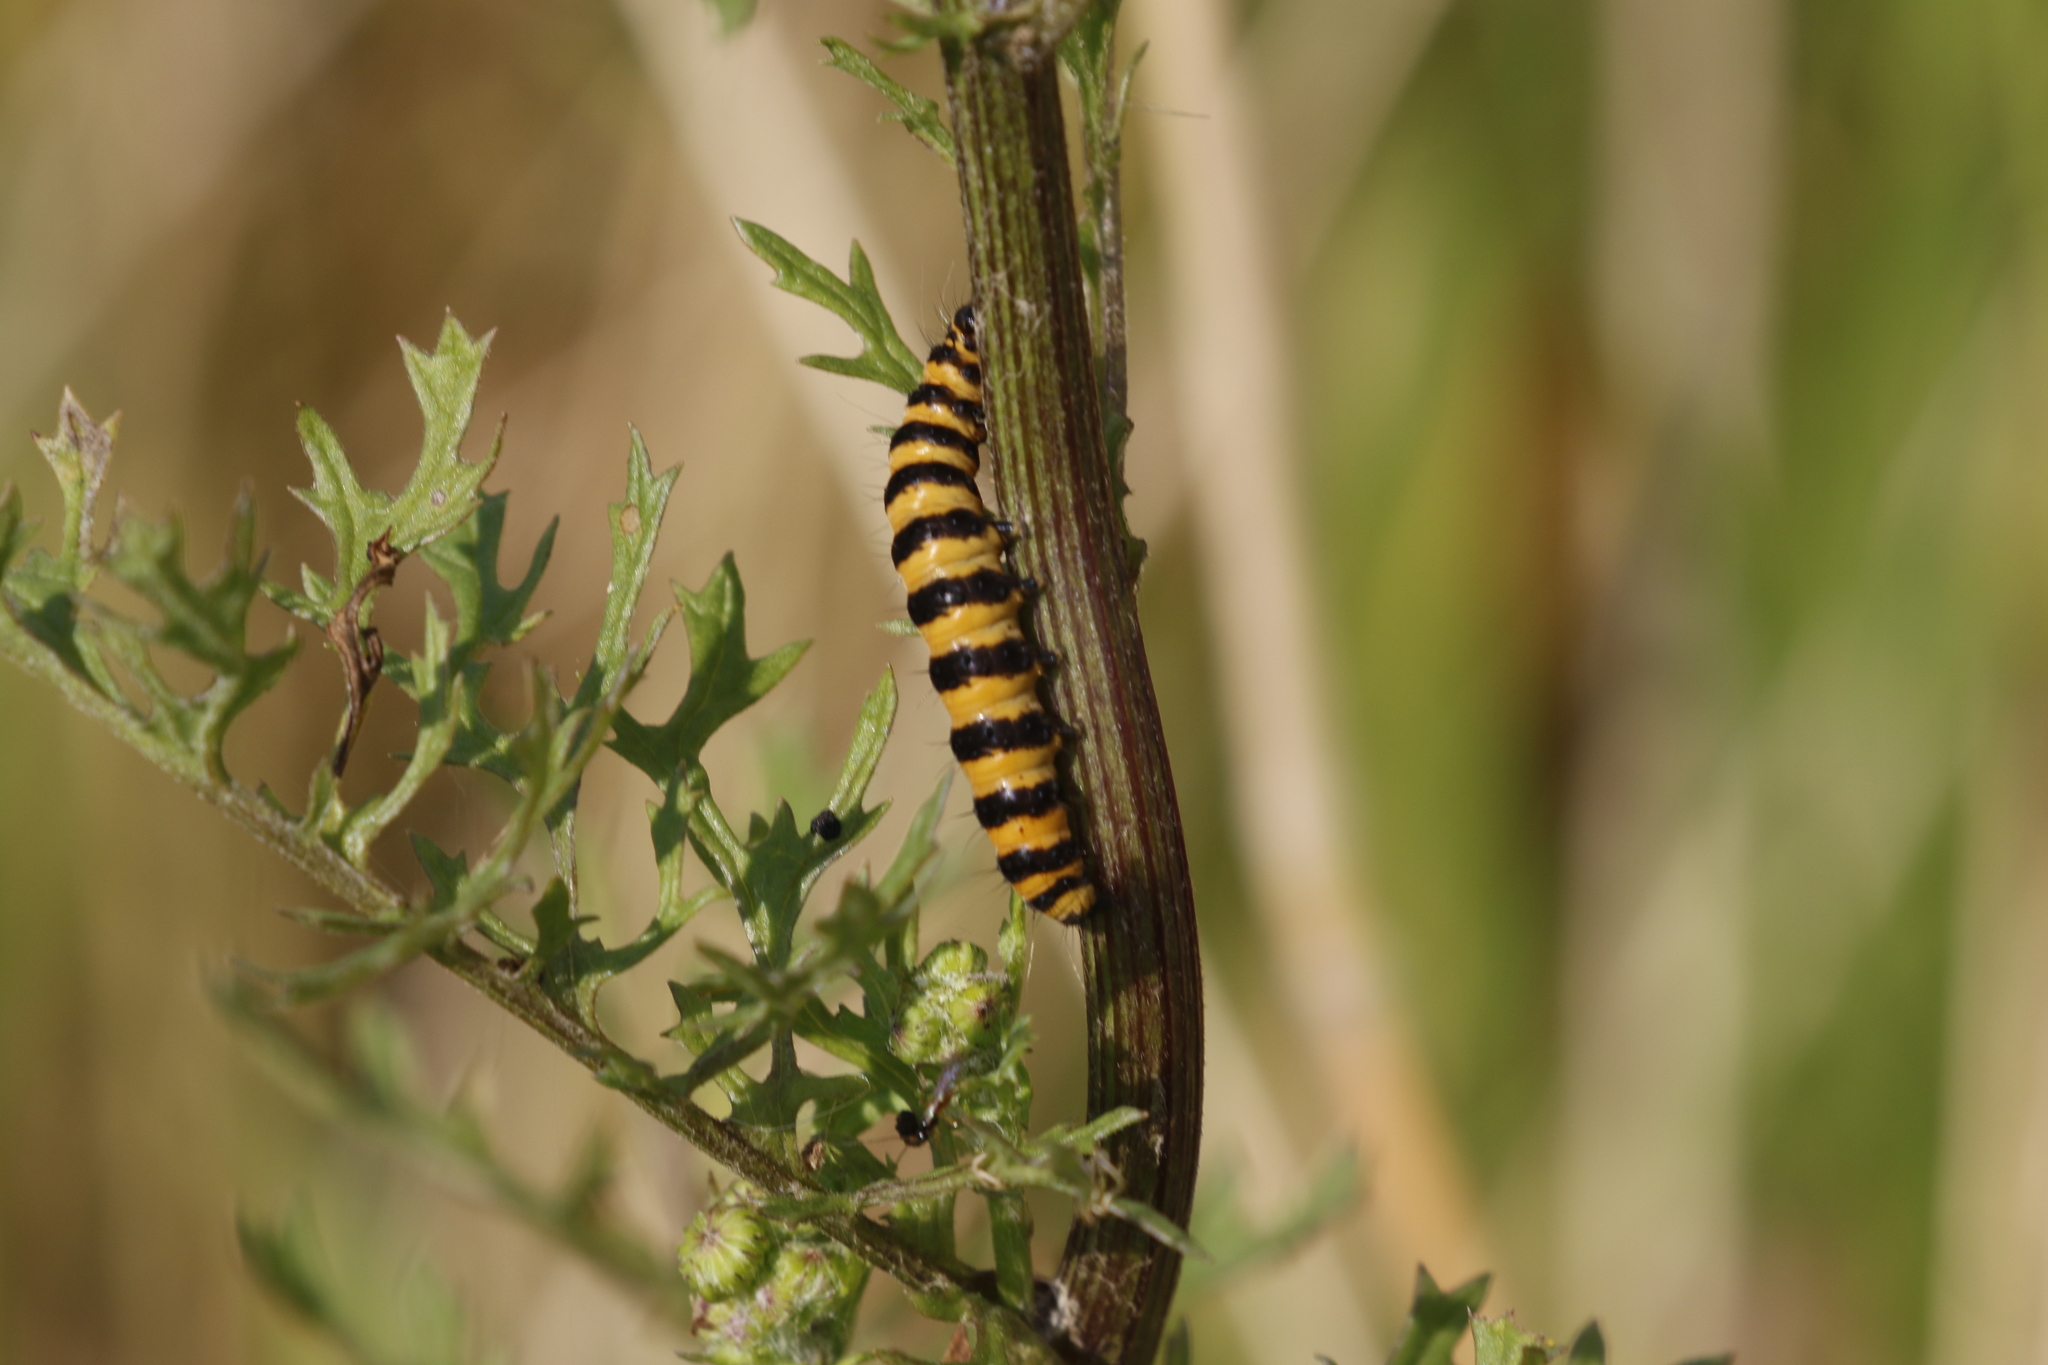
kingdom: Animalia
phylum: Arthropoda
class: Insecta
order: Lepidoptera
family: Erebidae
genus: Tyria
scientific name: Tyria jacobaeae
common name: Cinnabar
